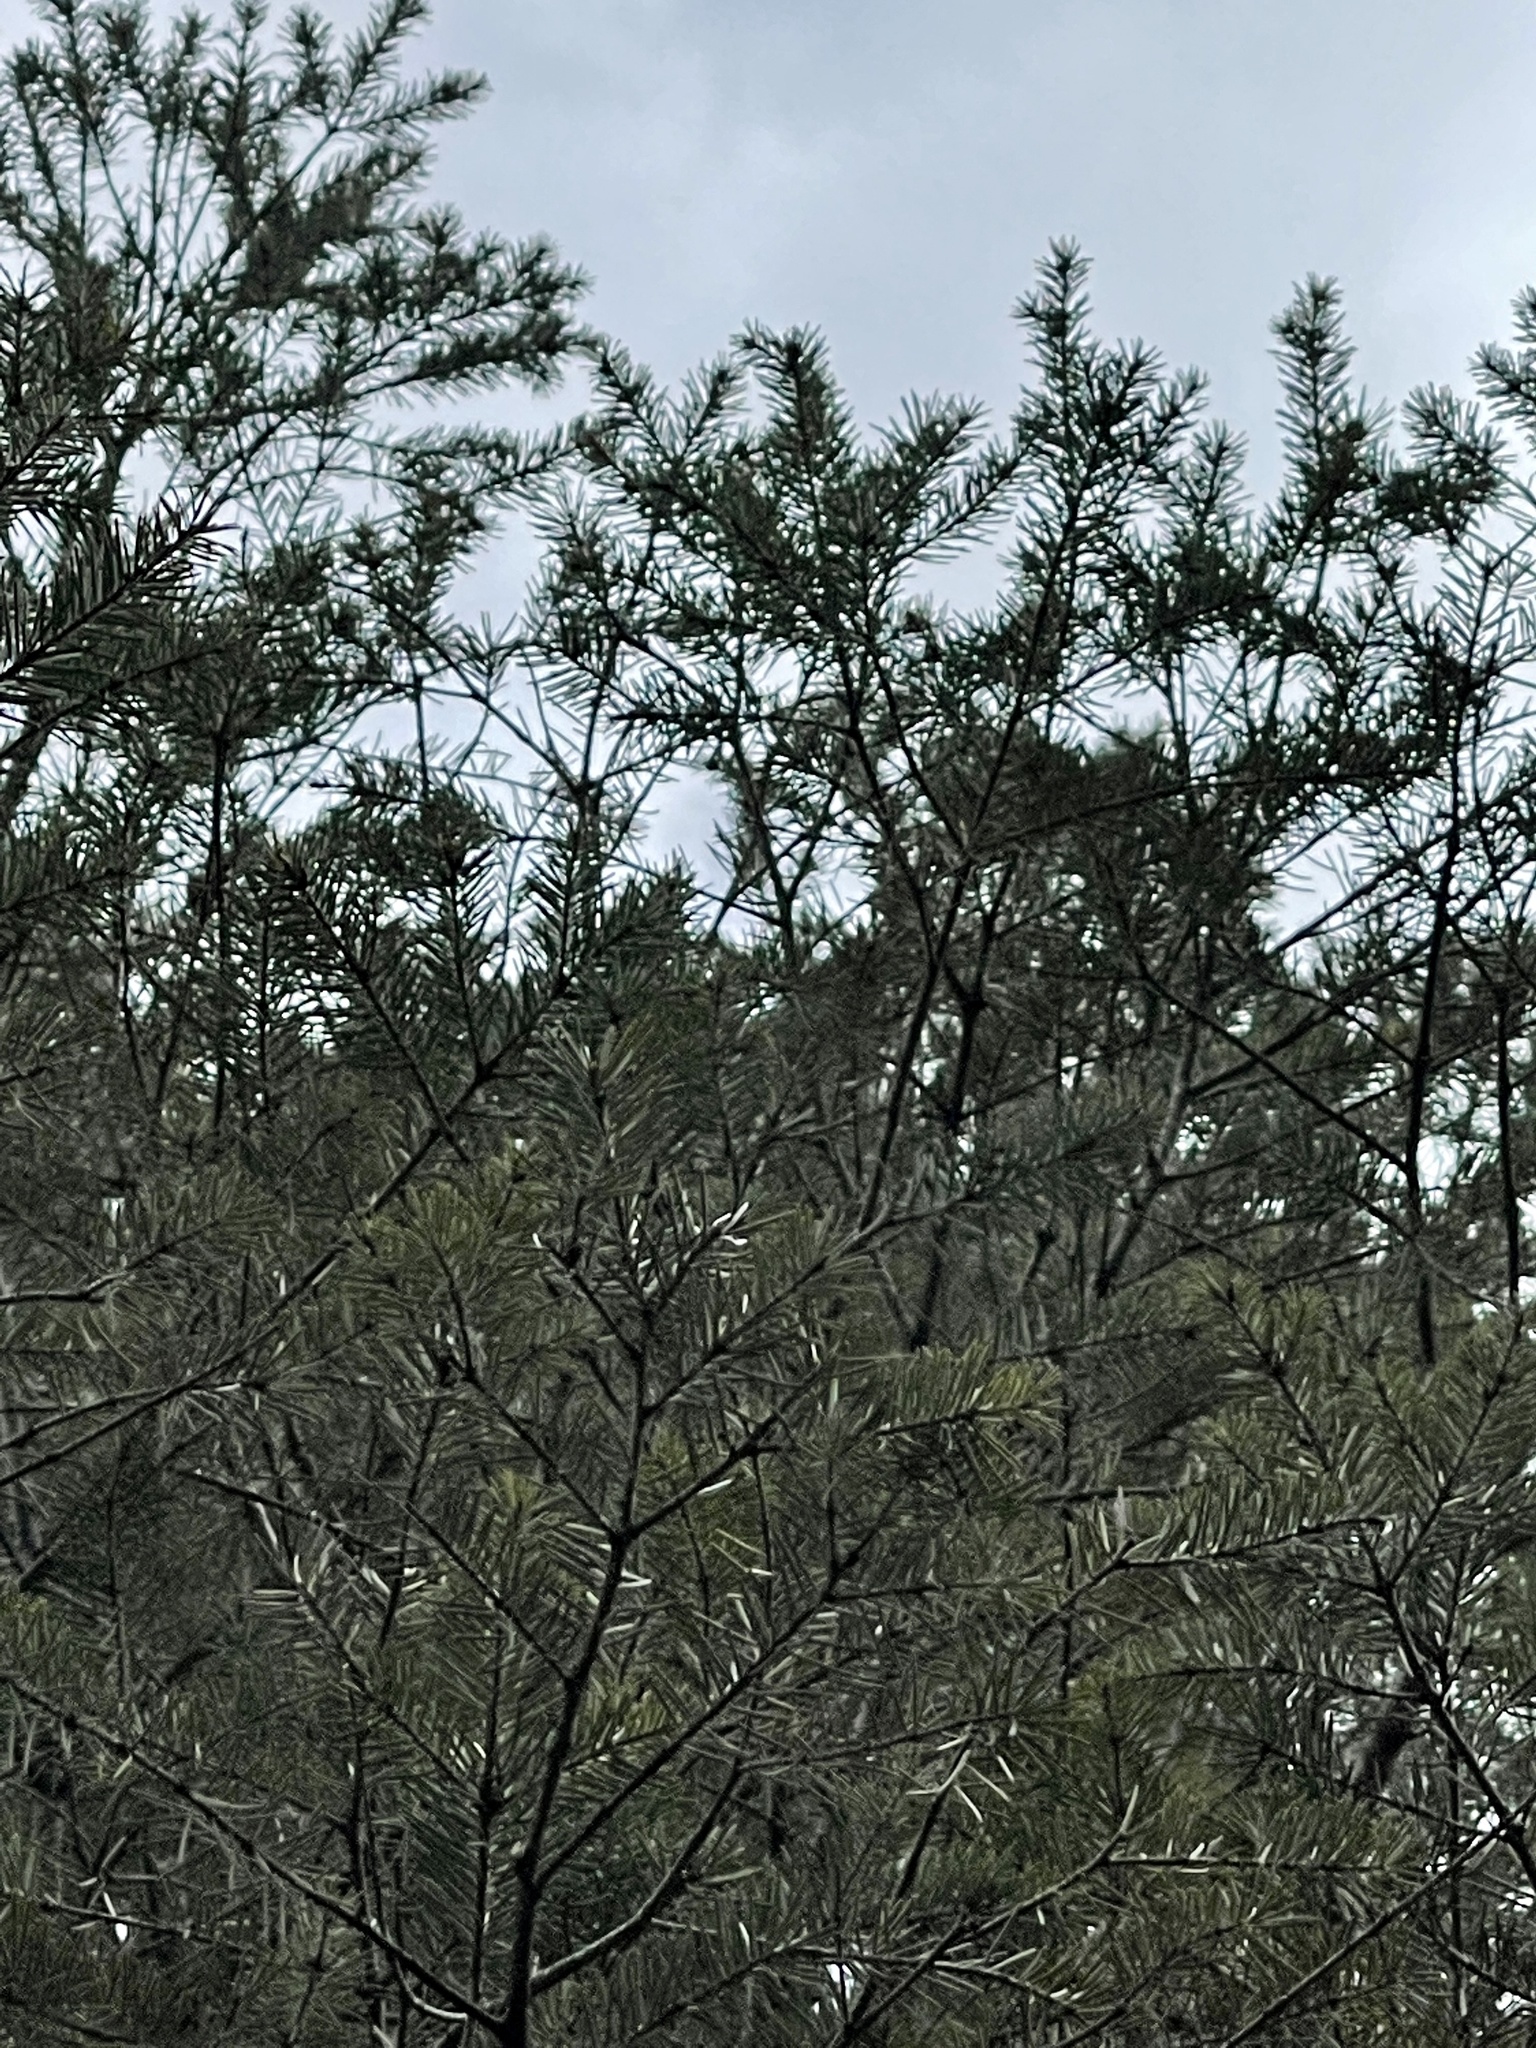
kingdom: Plantae
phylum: Tracheophyta
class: Pinopsida
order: Pinales
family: Pinaceae
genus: Pseudotsuga
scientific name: Pseudotsuga menziesii
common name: Douglas fir
